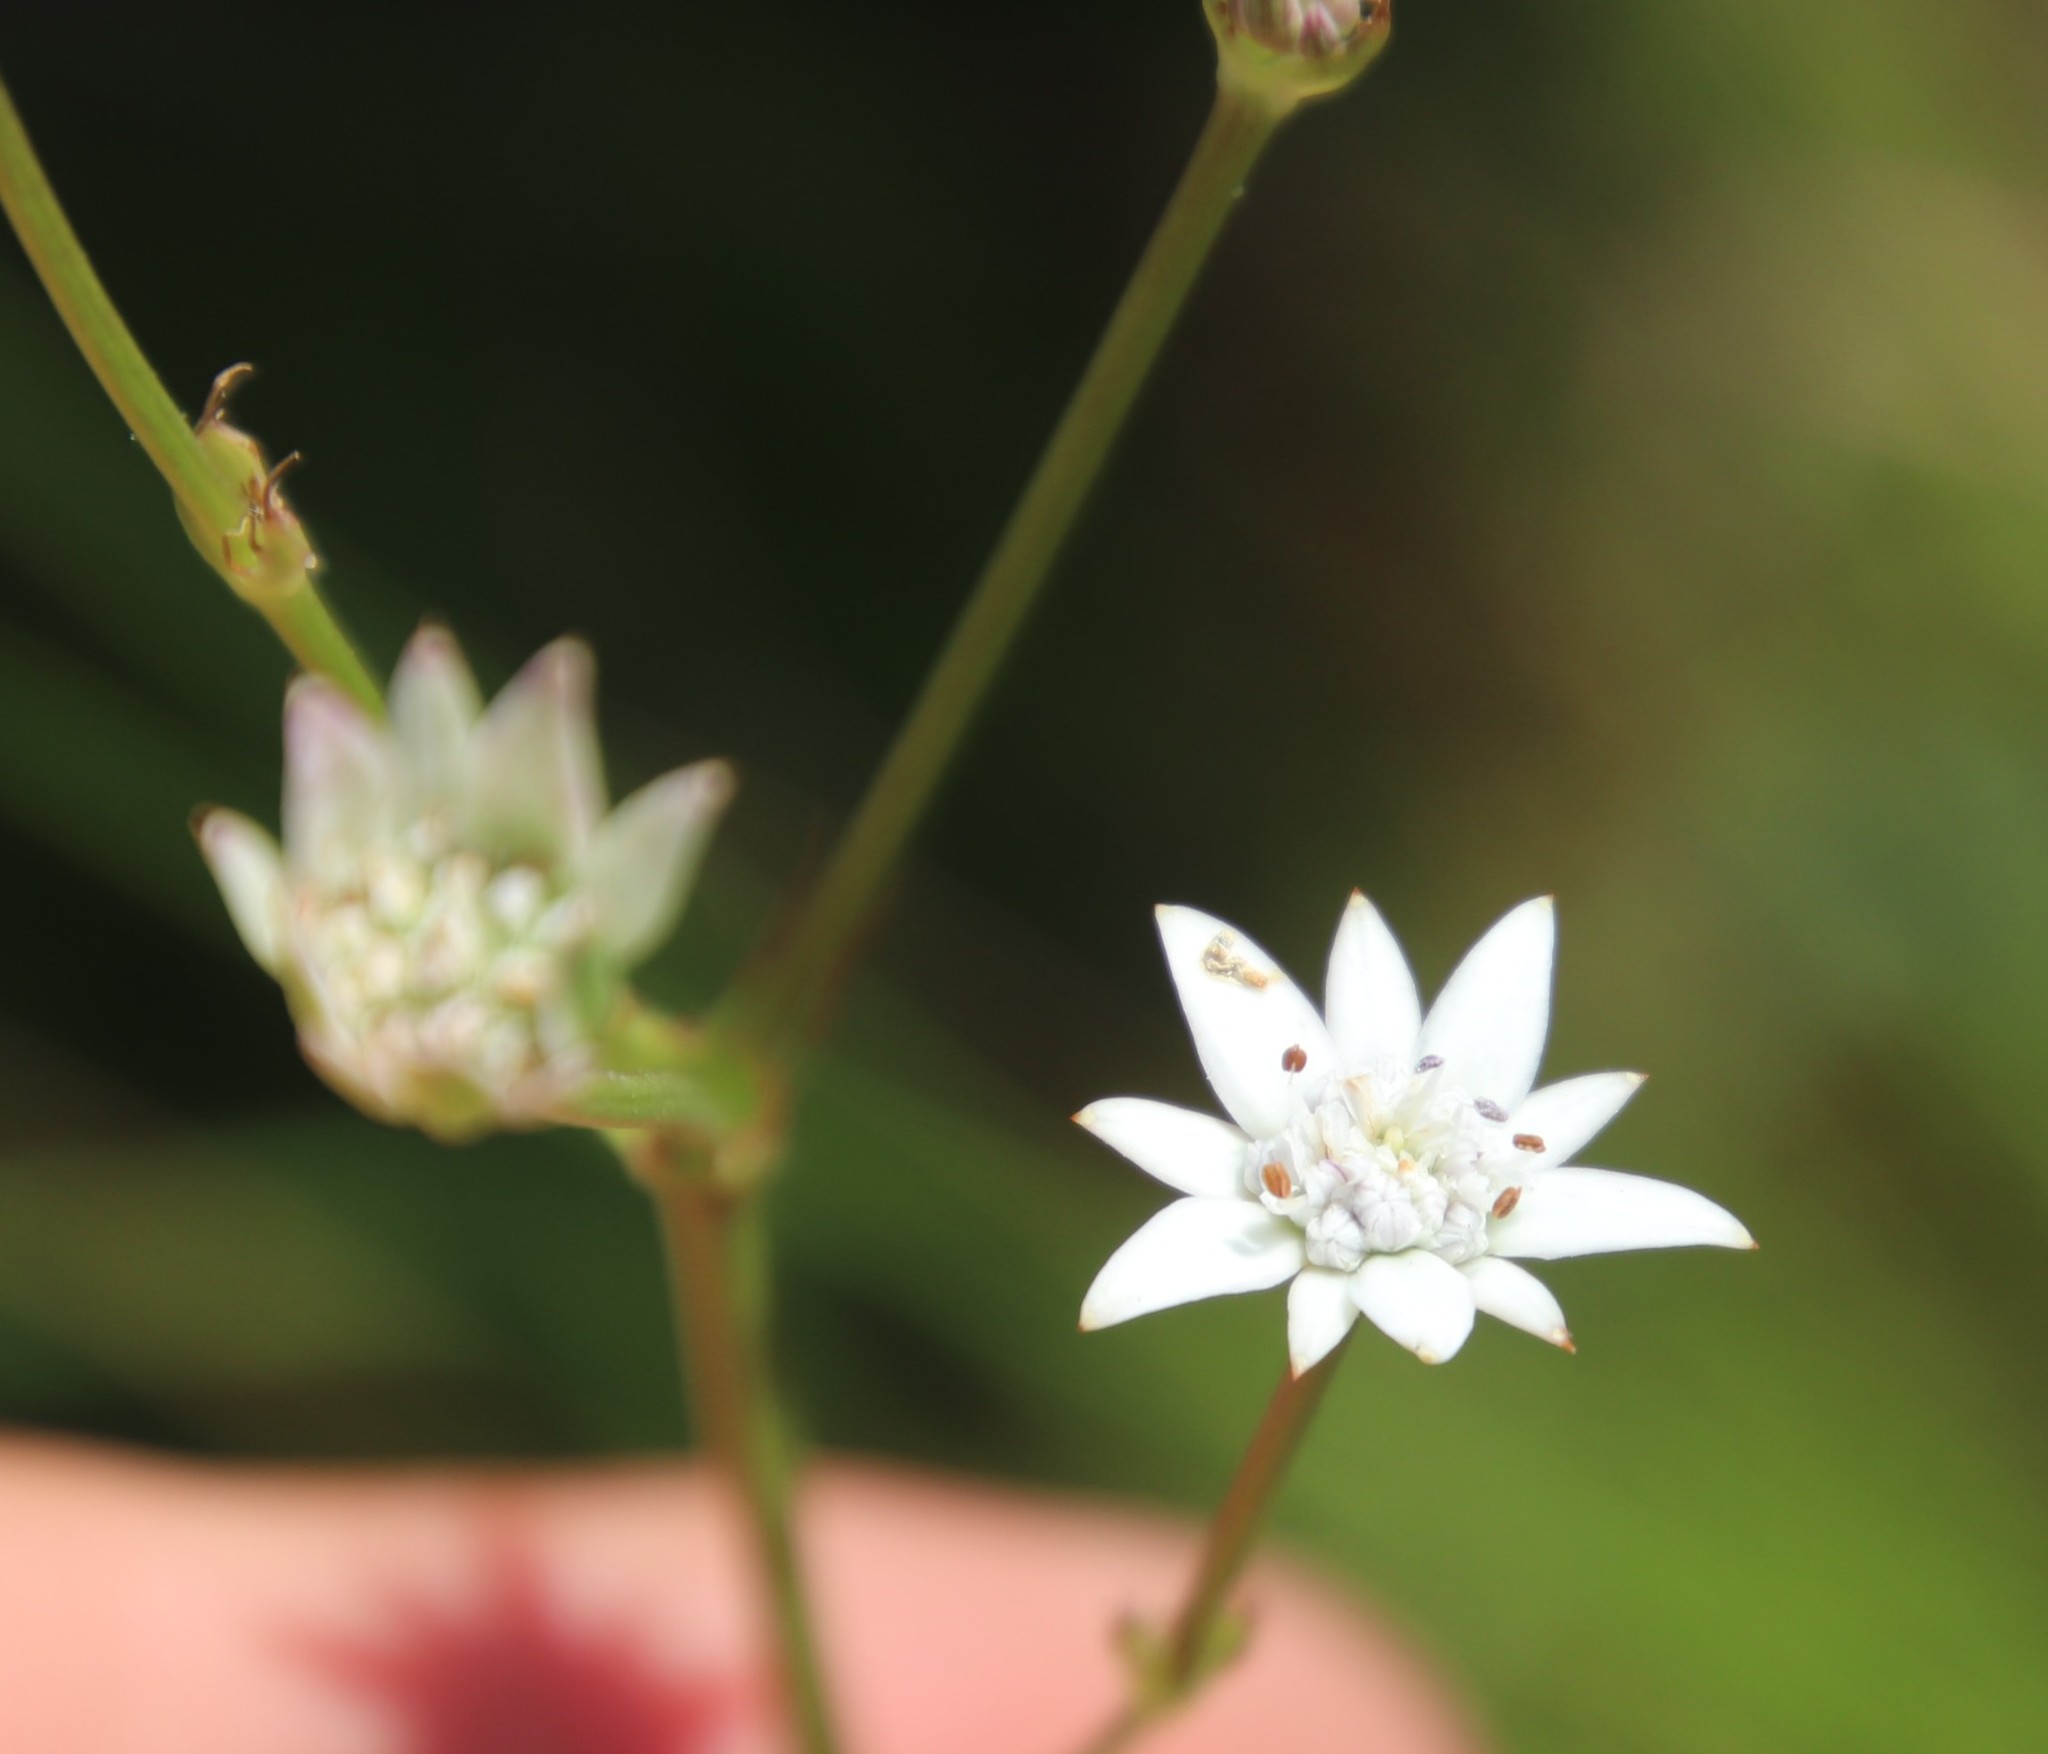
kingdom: Plantae
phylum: Tracheophyta
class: Magnoliopsida
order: Apiales
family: Apiaceae
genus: Alepidea
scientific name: Alepidea peduncularis
